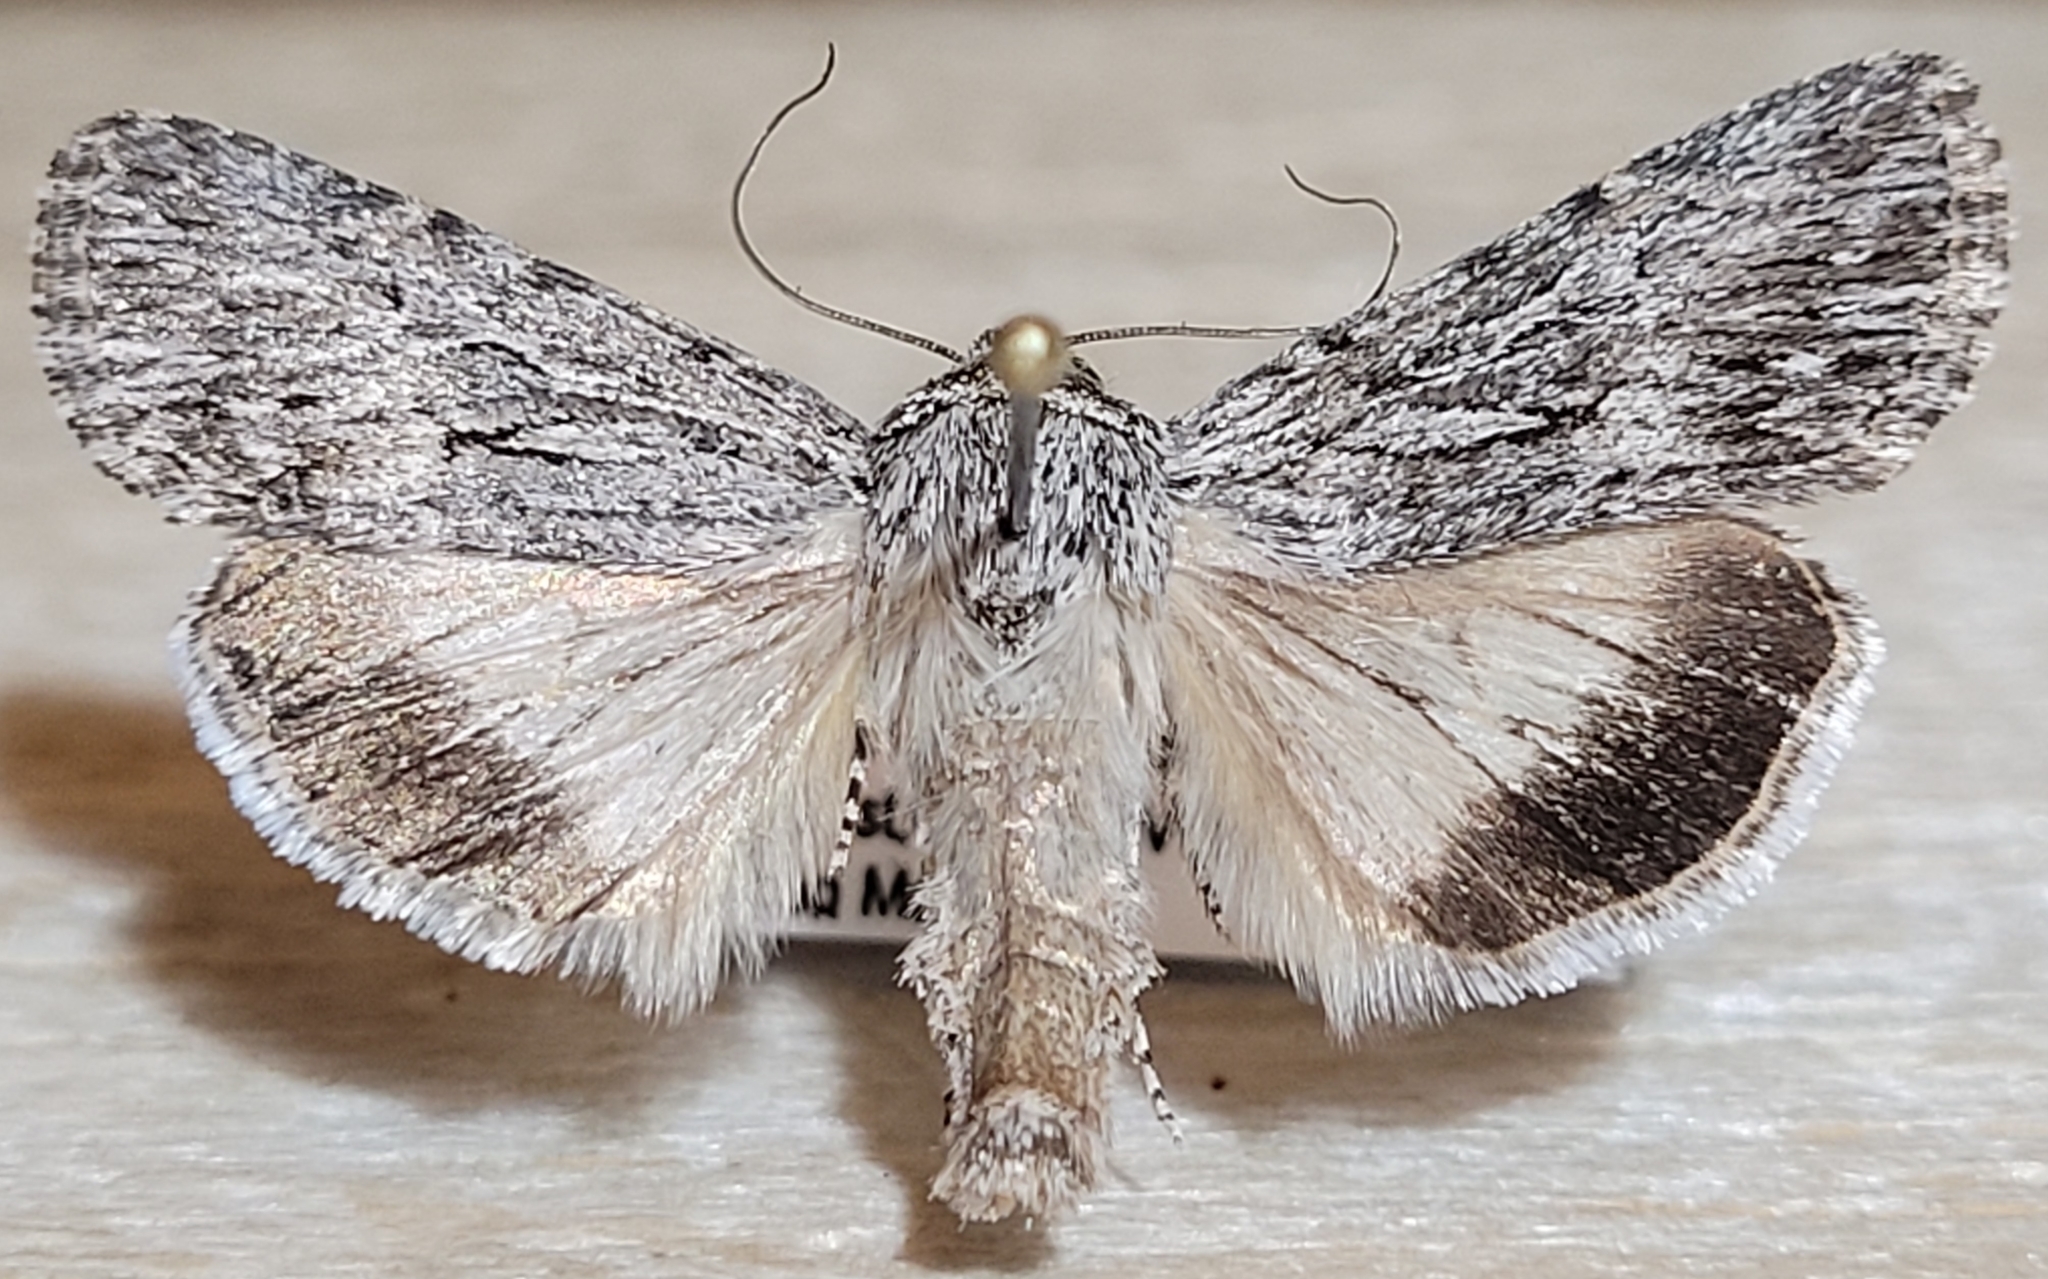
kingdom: Animalia
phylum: Arthropoda
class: Insecta
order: Lepidoptera
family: Noctuidae
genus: Sympistis
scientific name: Sympistis poliochroa
